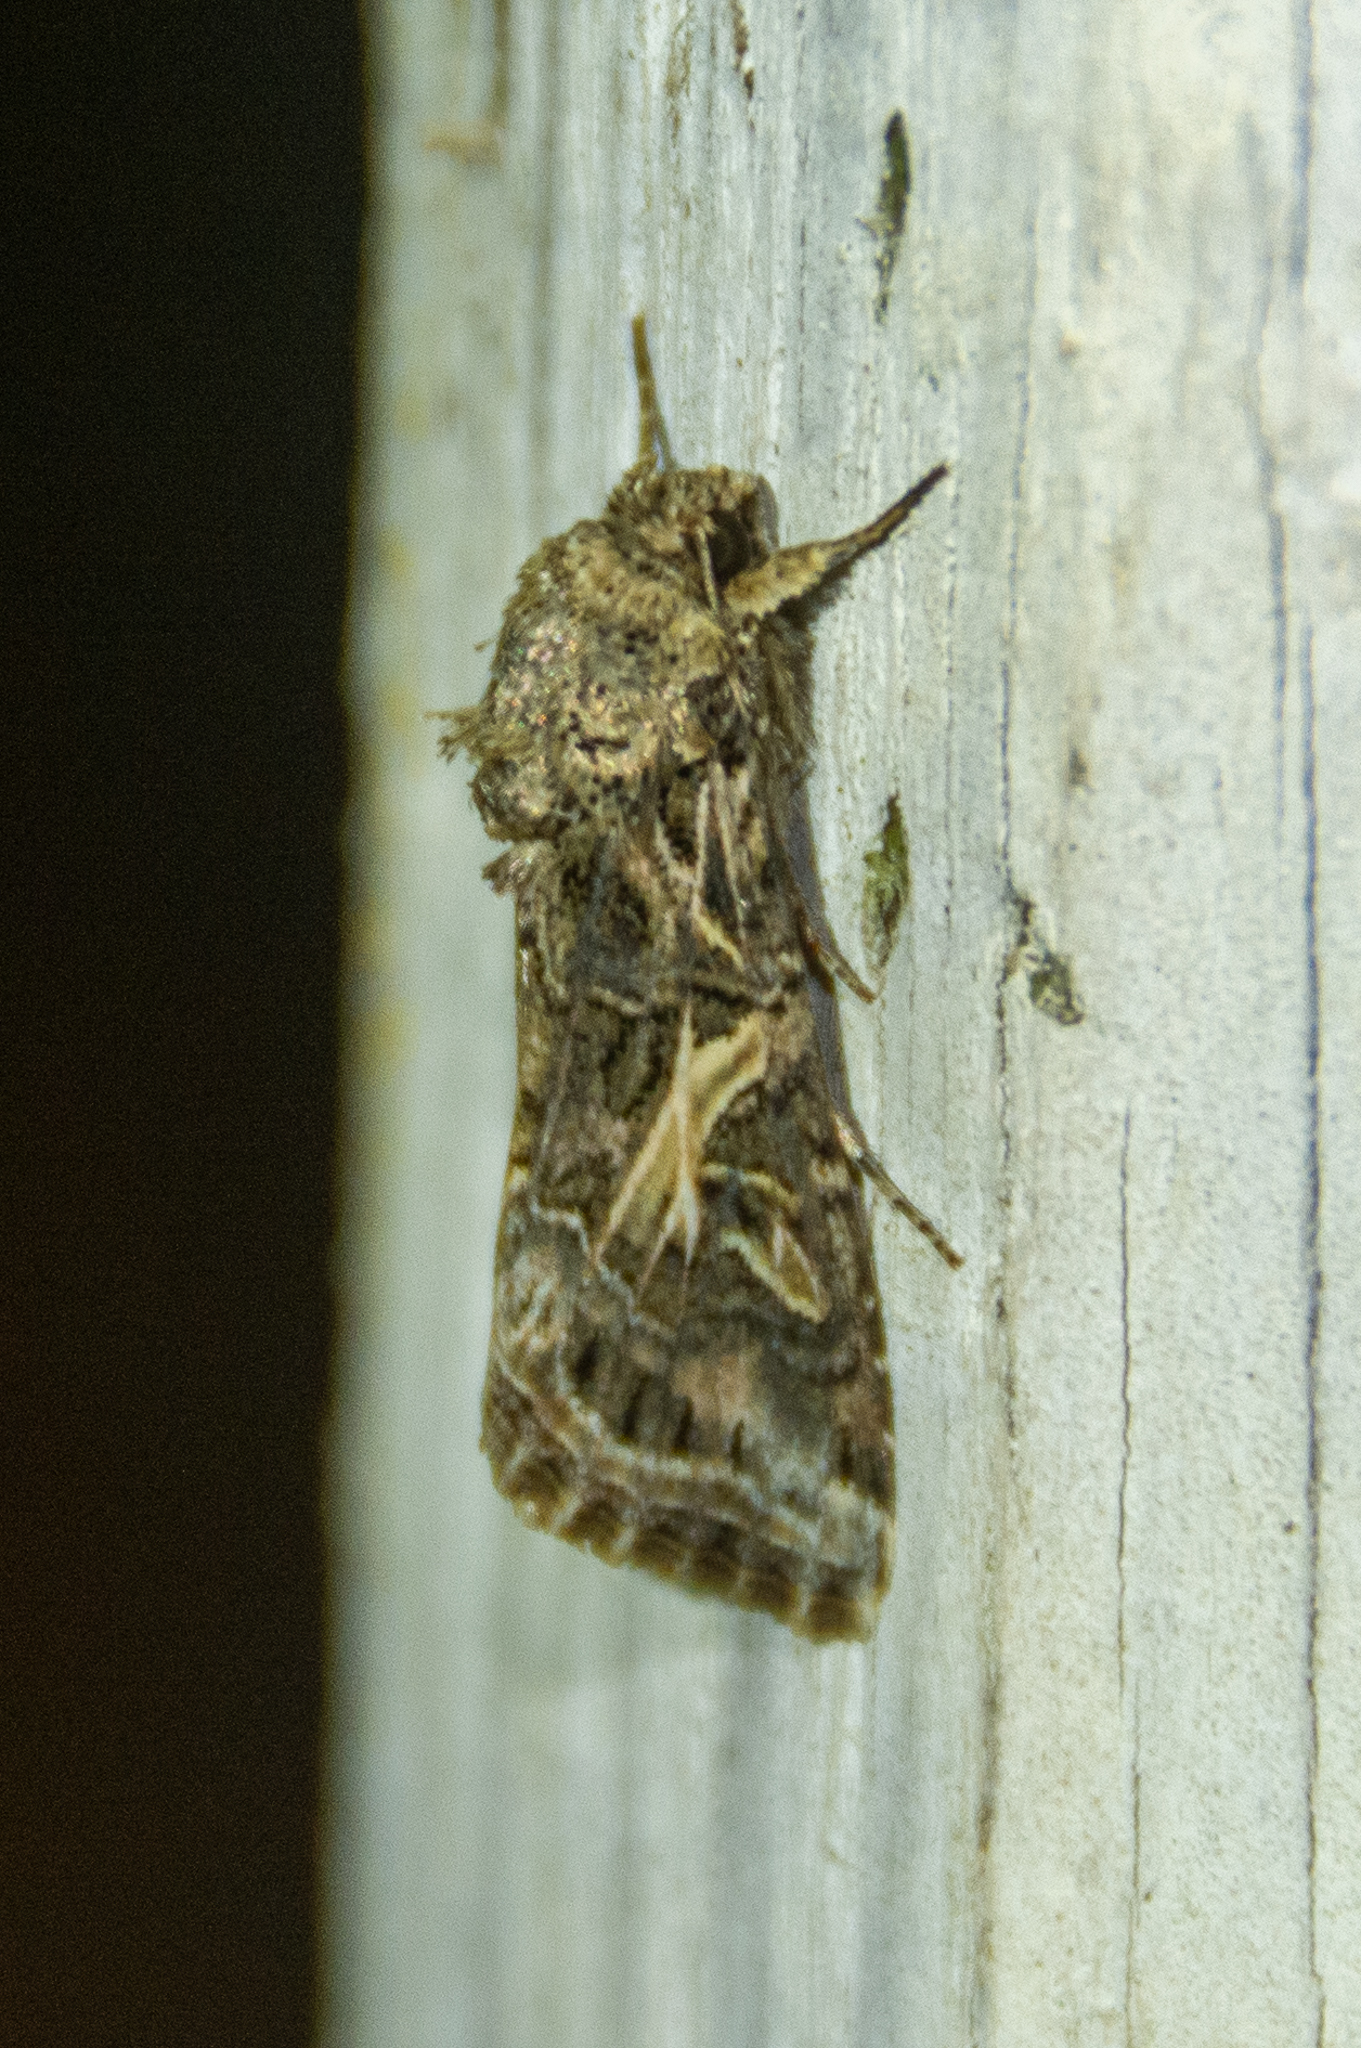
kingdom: Animalia
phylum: Arthropoda
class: Insecta
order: Lepidoptera
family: Noctuidae
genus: Spodoptera
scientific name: Spodoptera ornithogalli
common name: Yellow-striped armyworm
